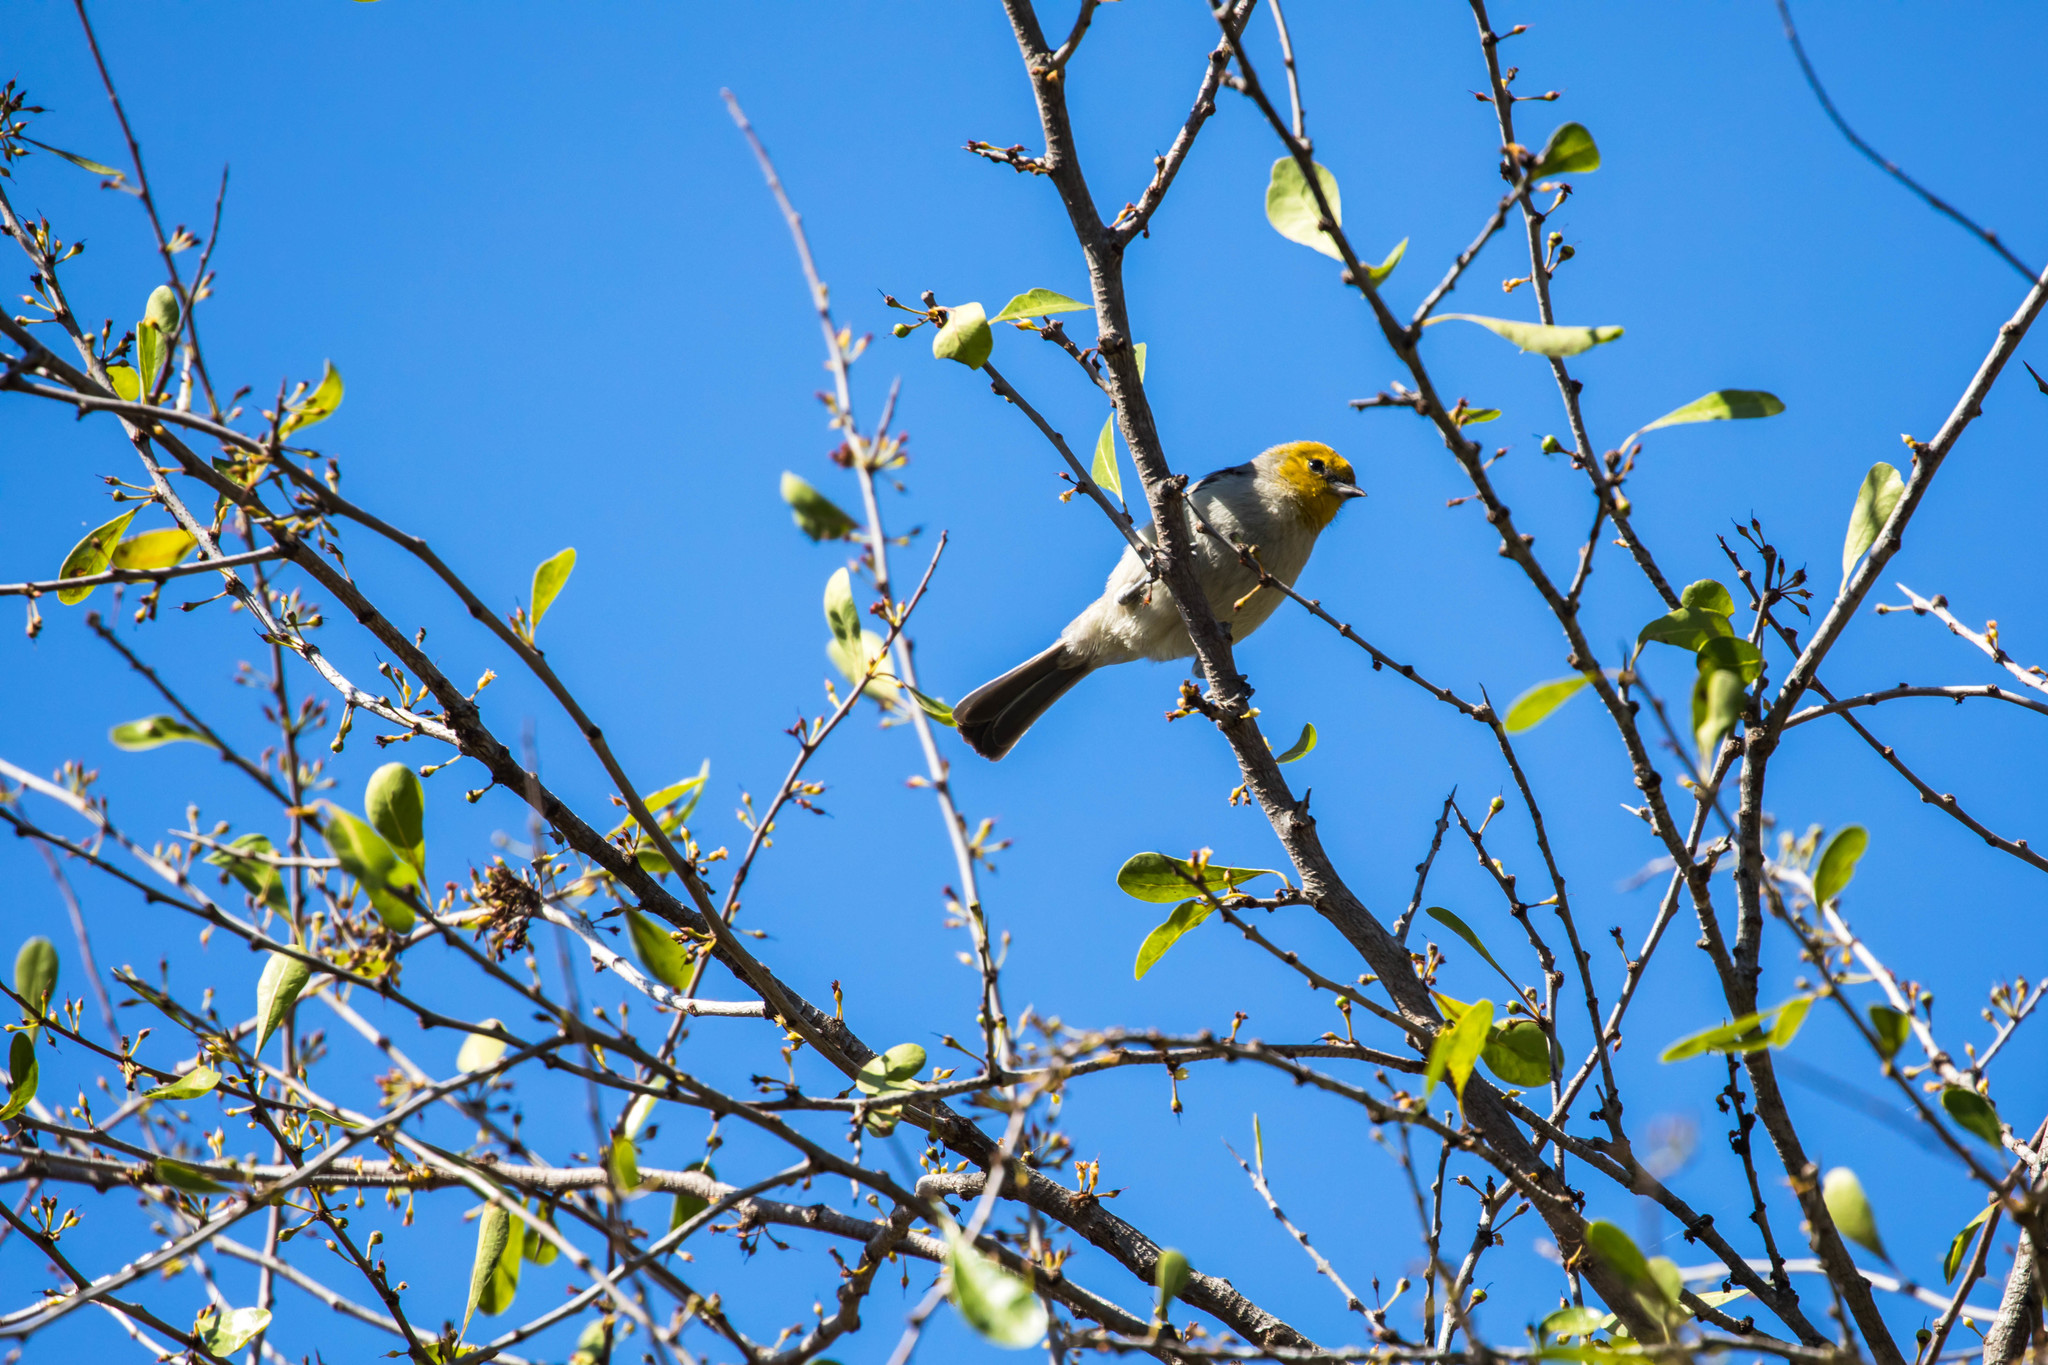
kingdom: Animalia
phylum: Chordata
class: Aves
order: Passeriformes
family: Remizidae
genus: Auriparus
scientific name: Auriparus flaviceps
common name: Verdin
